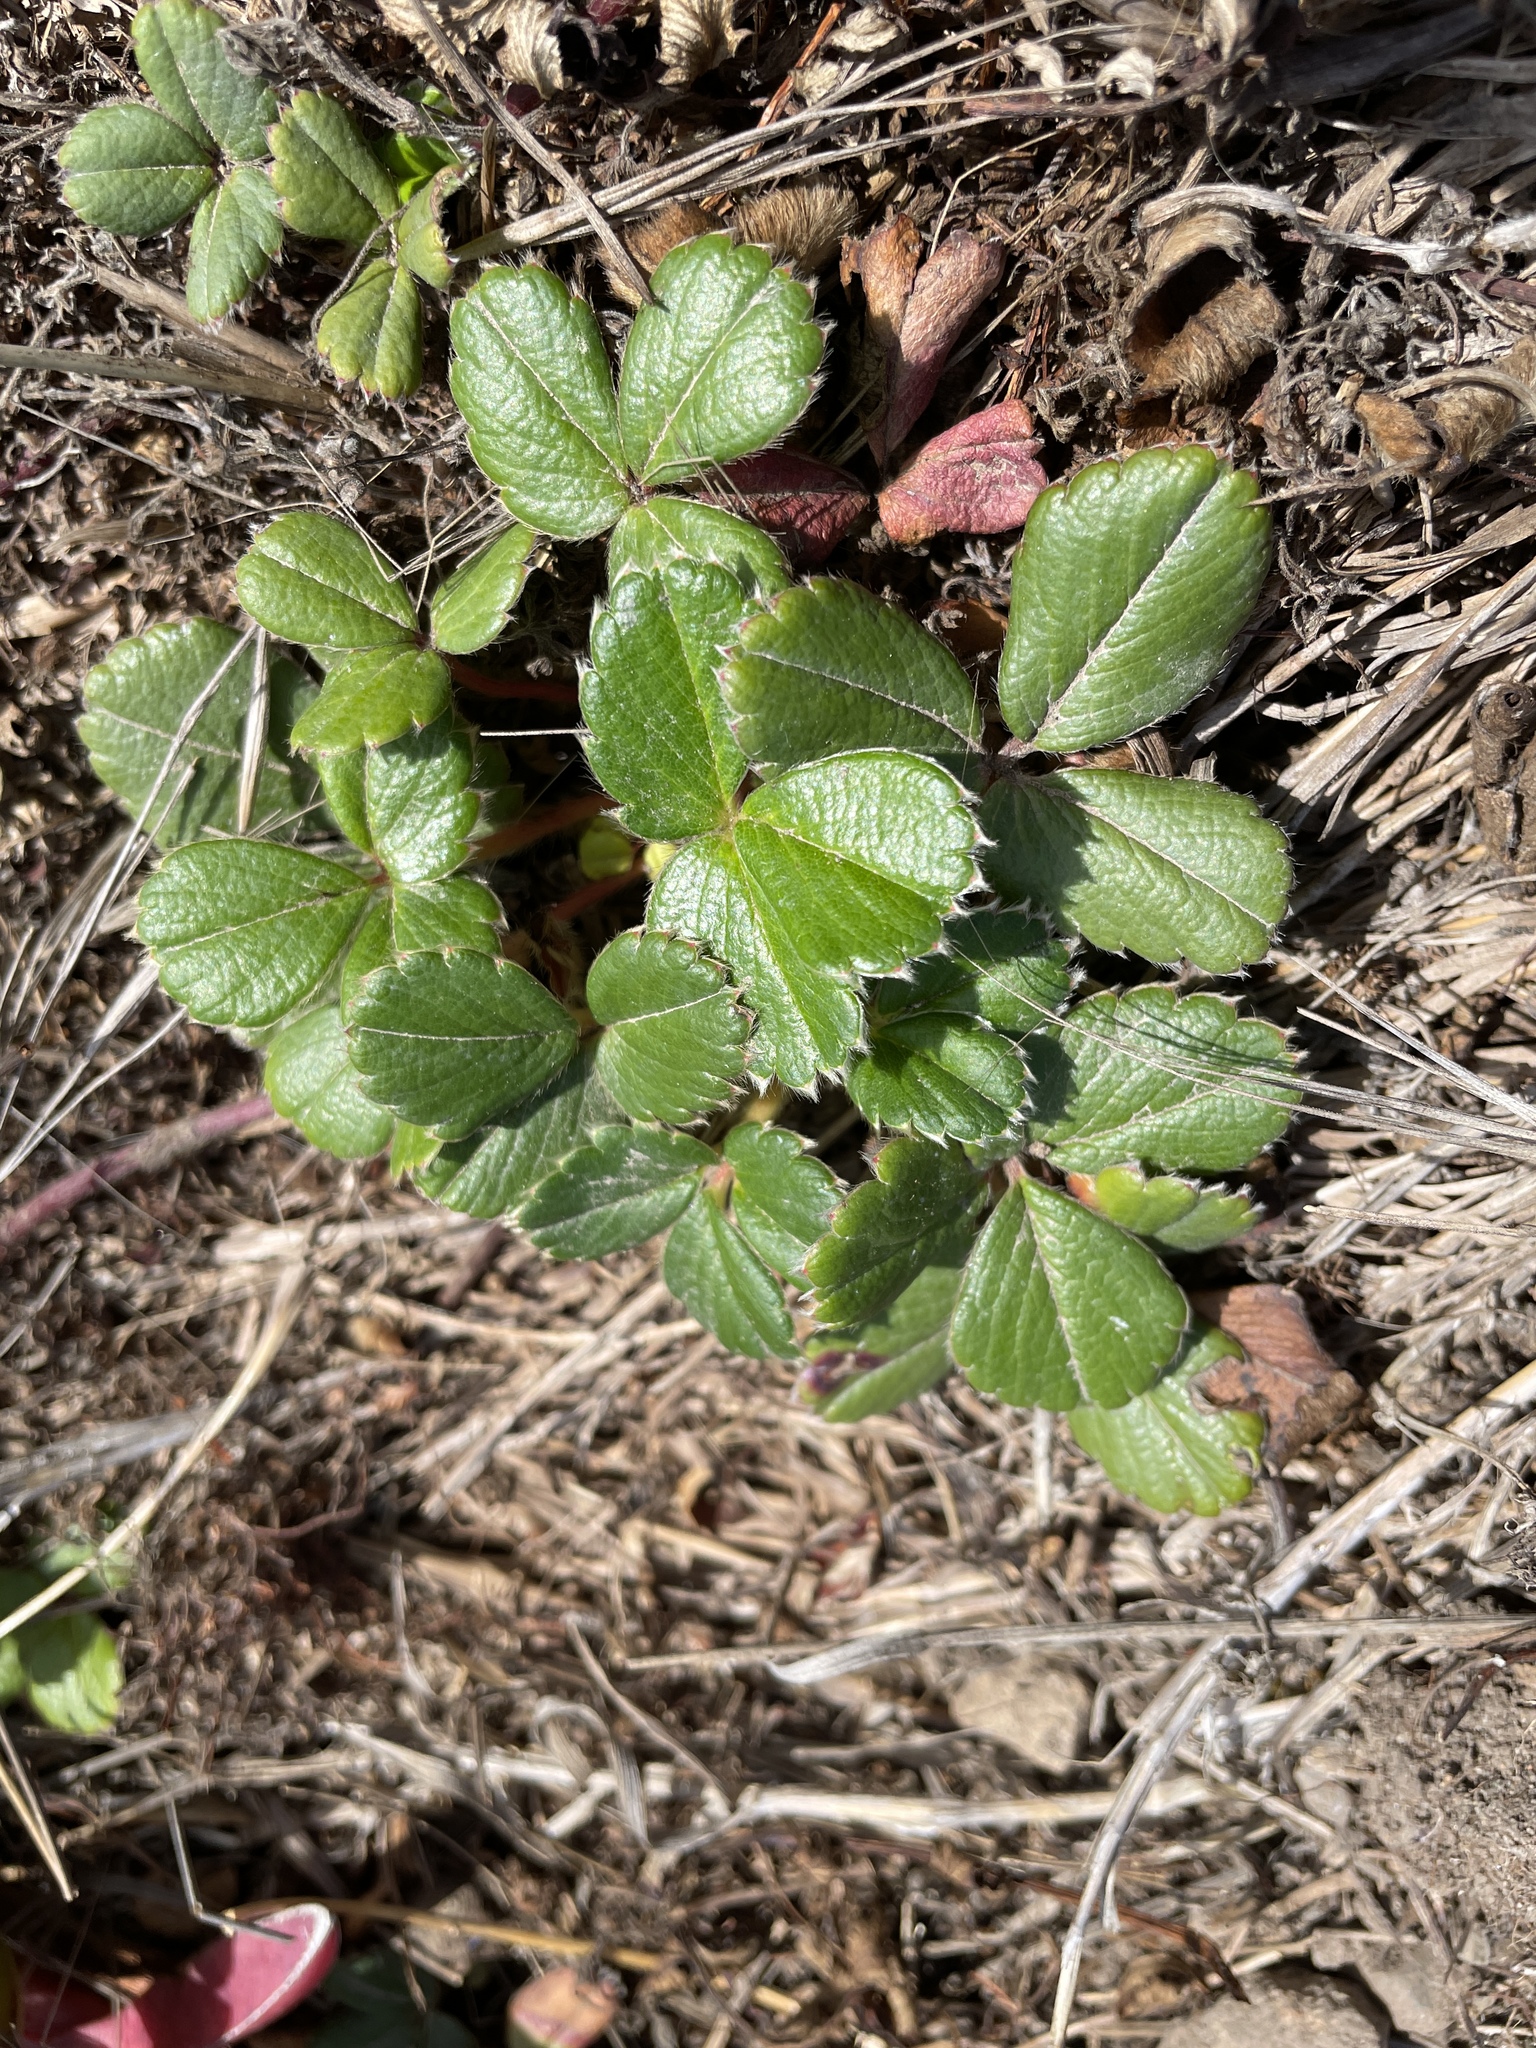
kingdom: Plantae
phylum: Tracheophyta
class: Magnoliopsida
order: Rosales
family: Rosaceae
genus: Fragaria
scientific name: Fragaria chiloensis
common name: Beach strawberry
